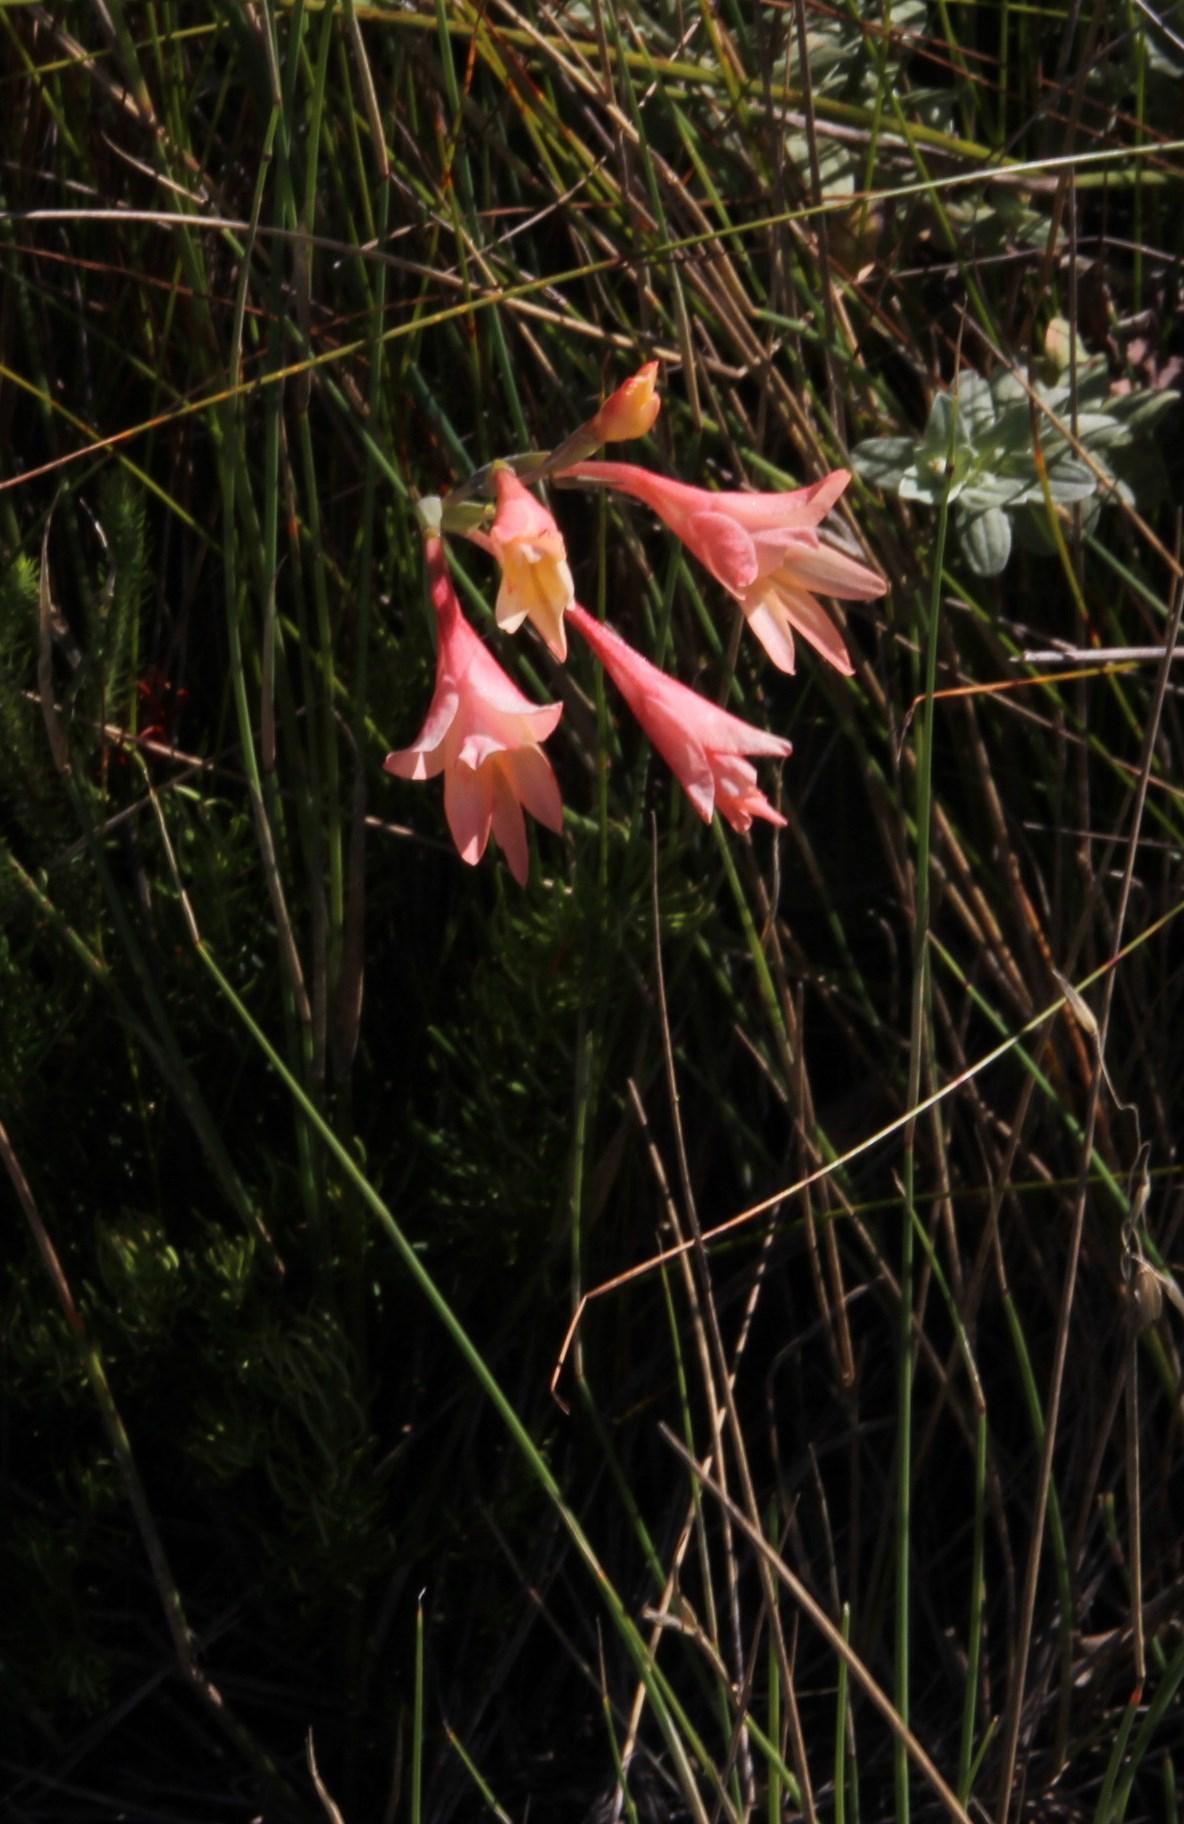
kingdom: Plantae
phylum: Tracheophyta
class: Liliopsida
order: Asparagales
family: Iridaceae
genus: Gladiolus
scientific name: Gladiolus monticola
